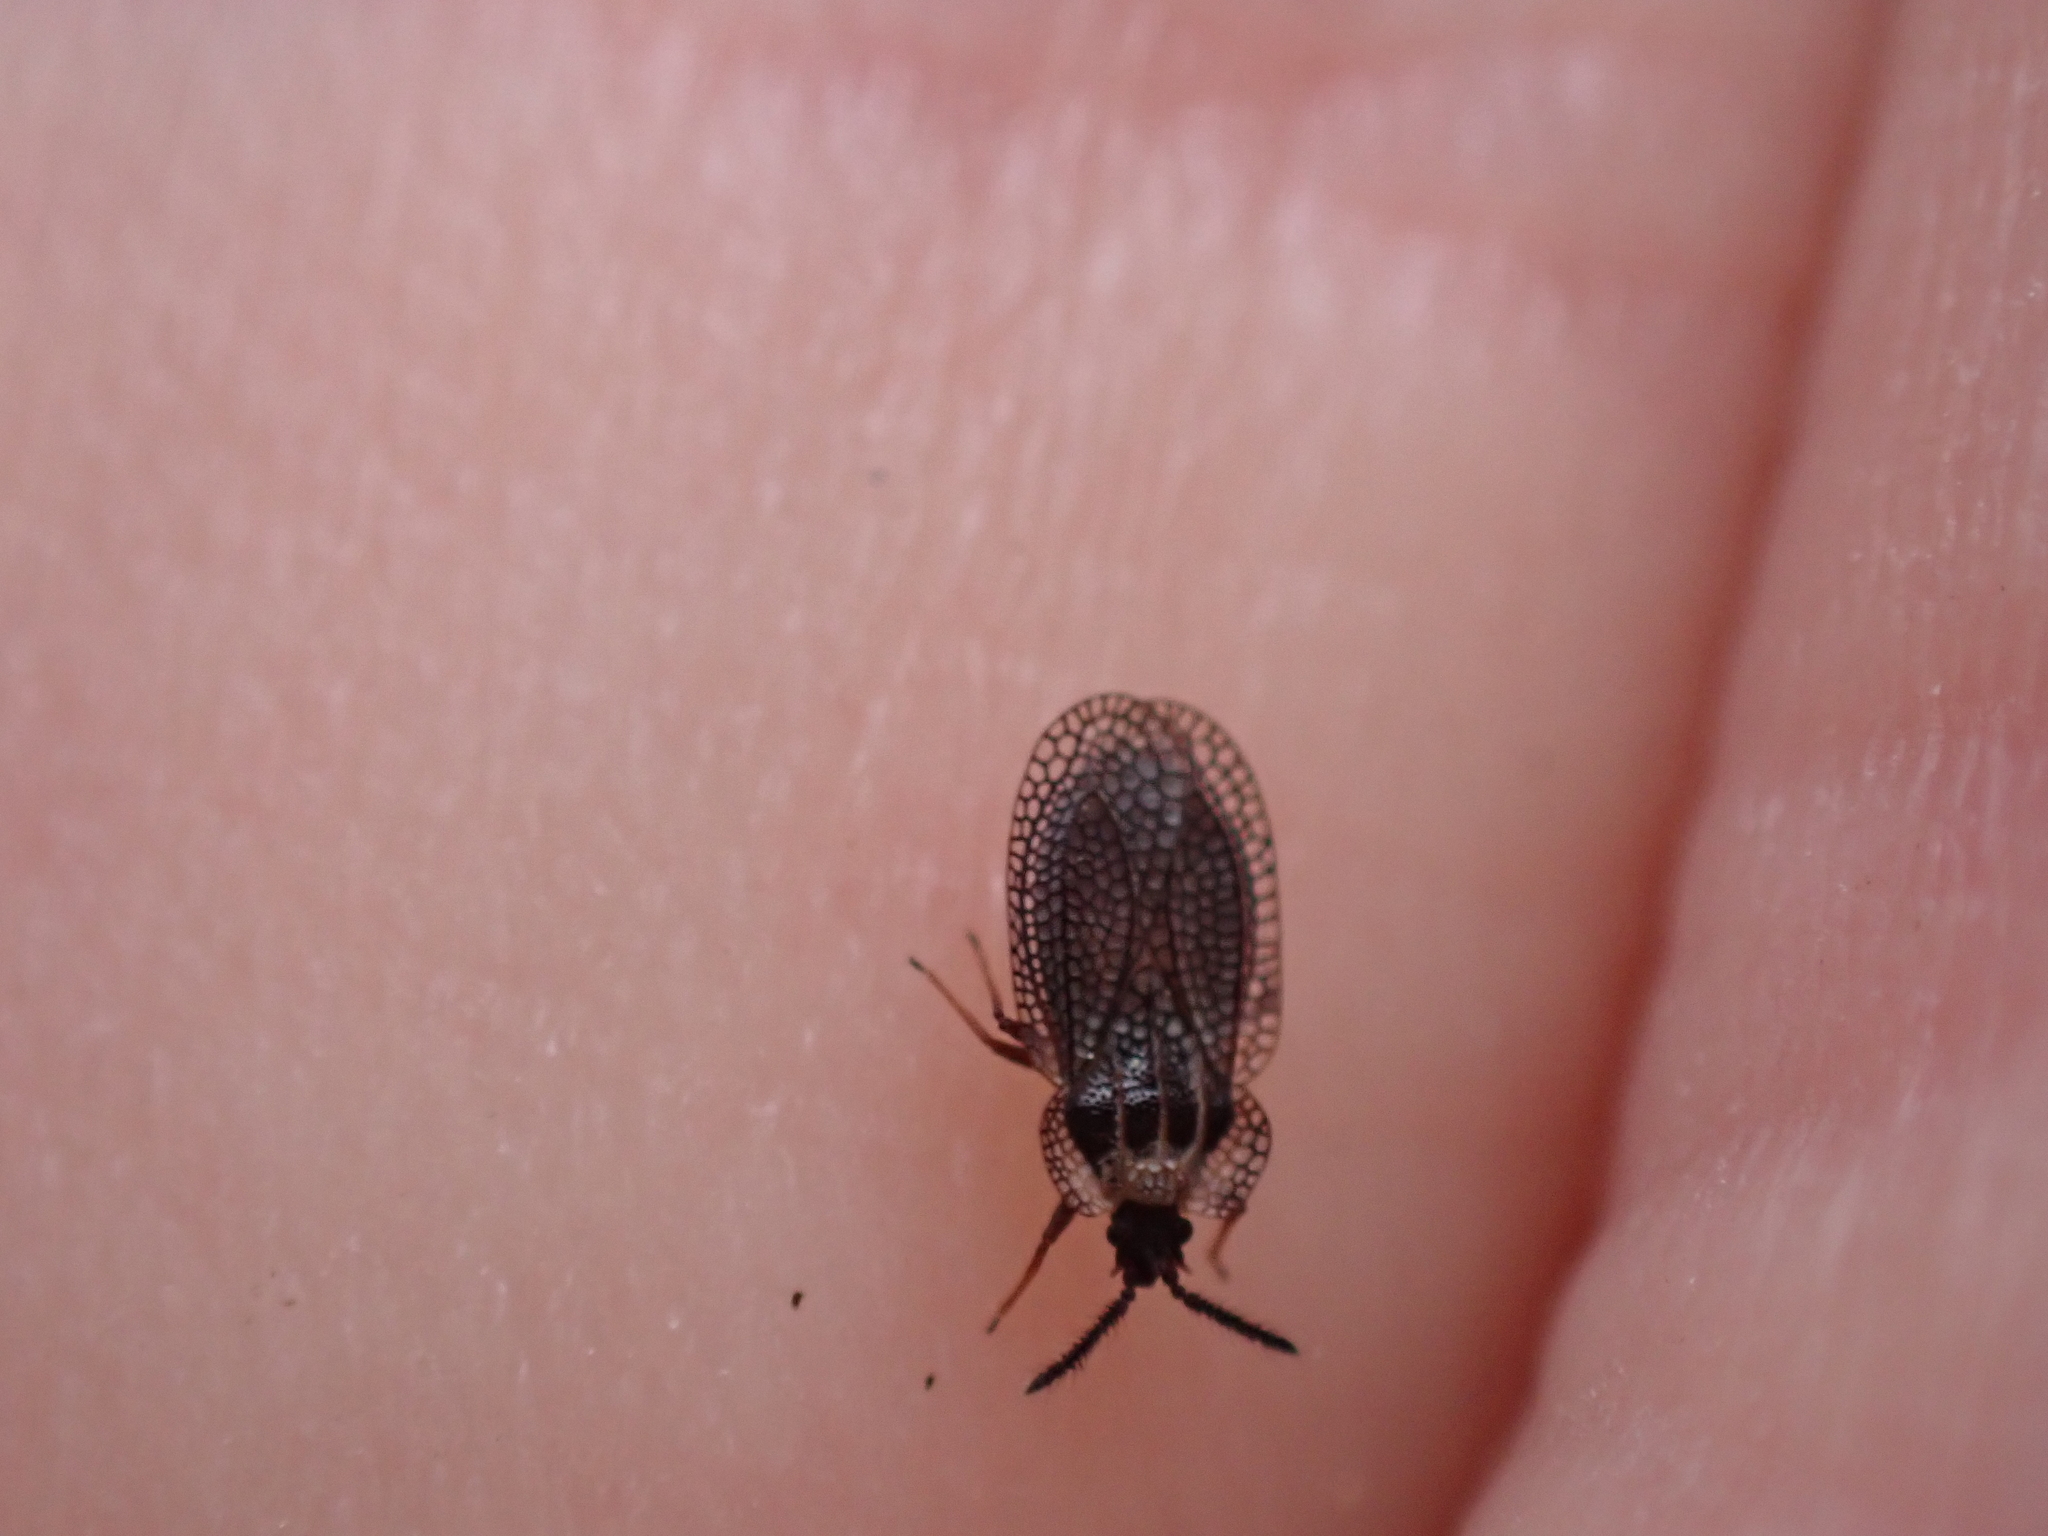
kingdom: Animalia
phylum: Arthropoda
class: Insecta
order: Hemiptera
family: Tingidae
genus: Dictyonota
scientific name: Dictyonota tricornis
